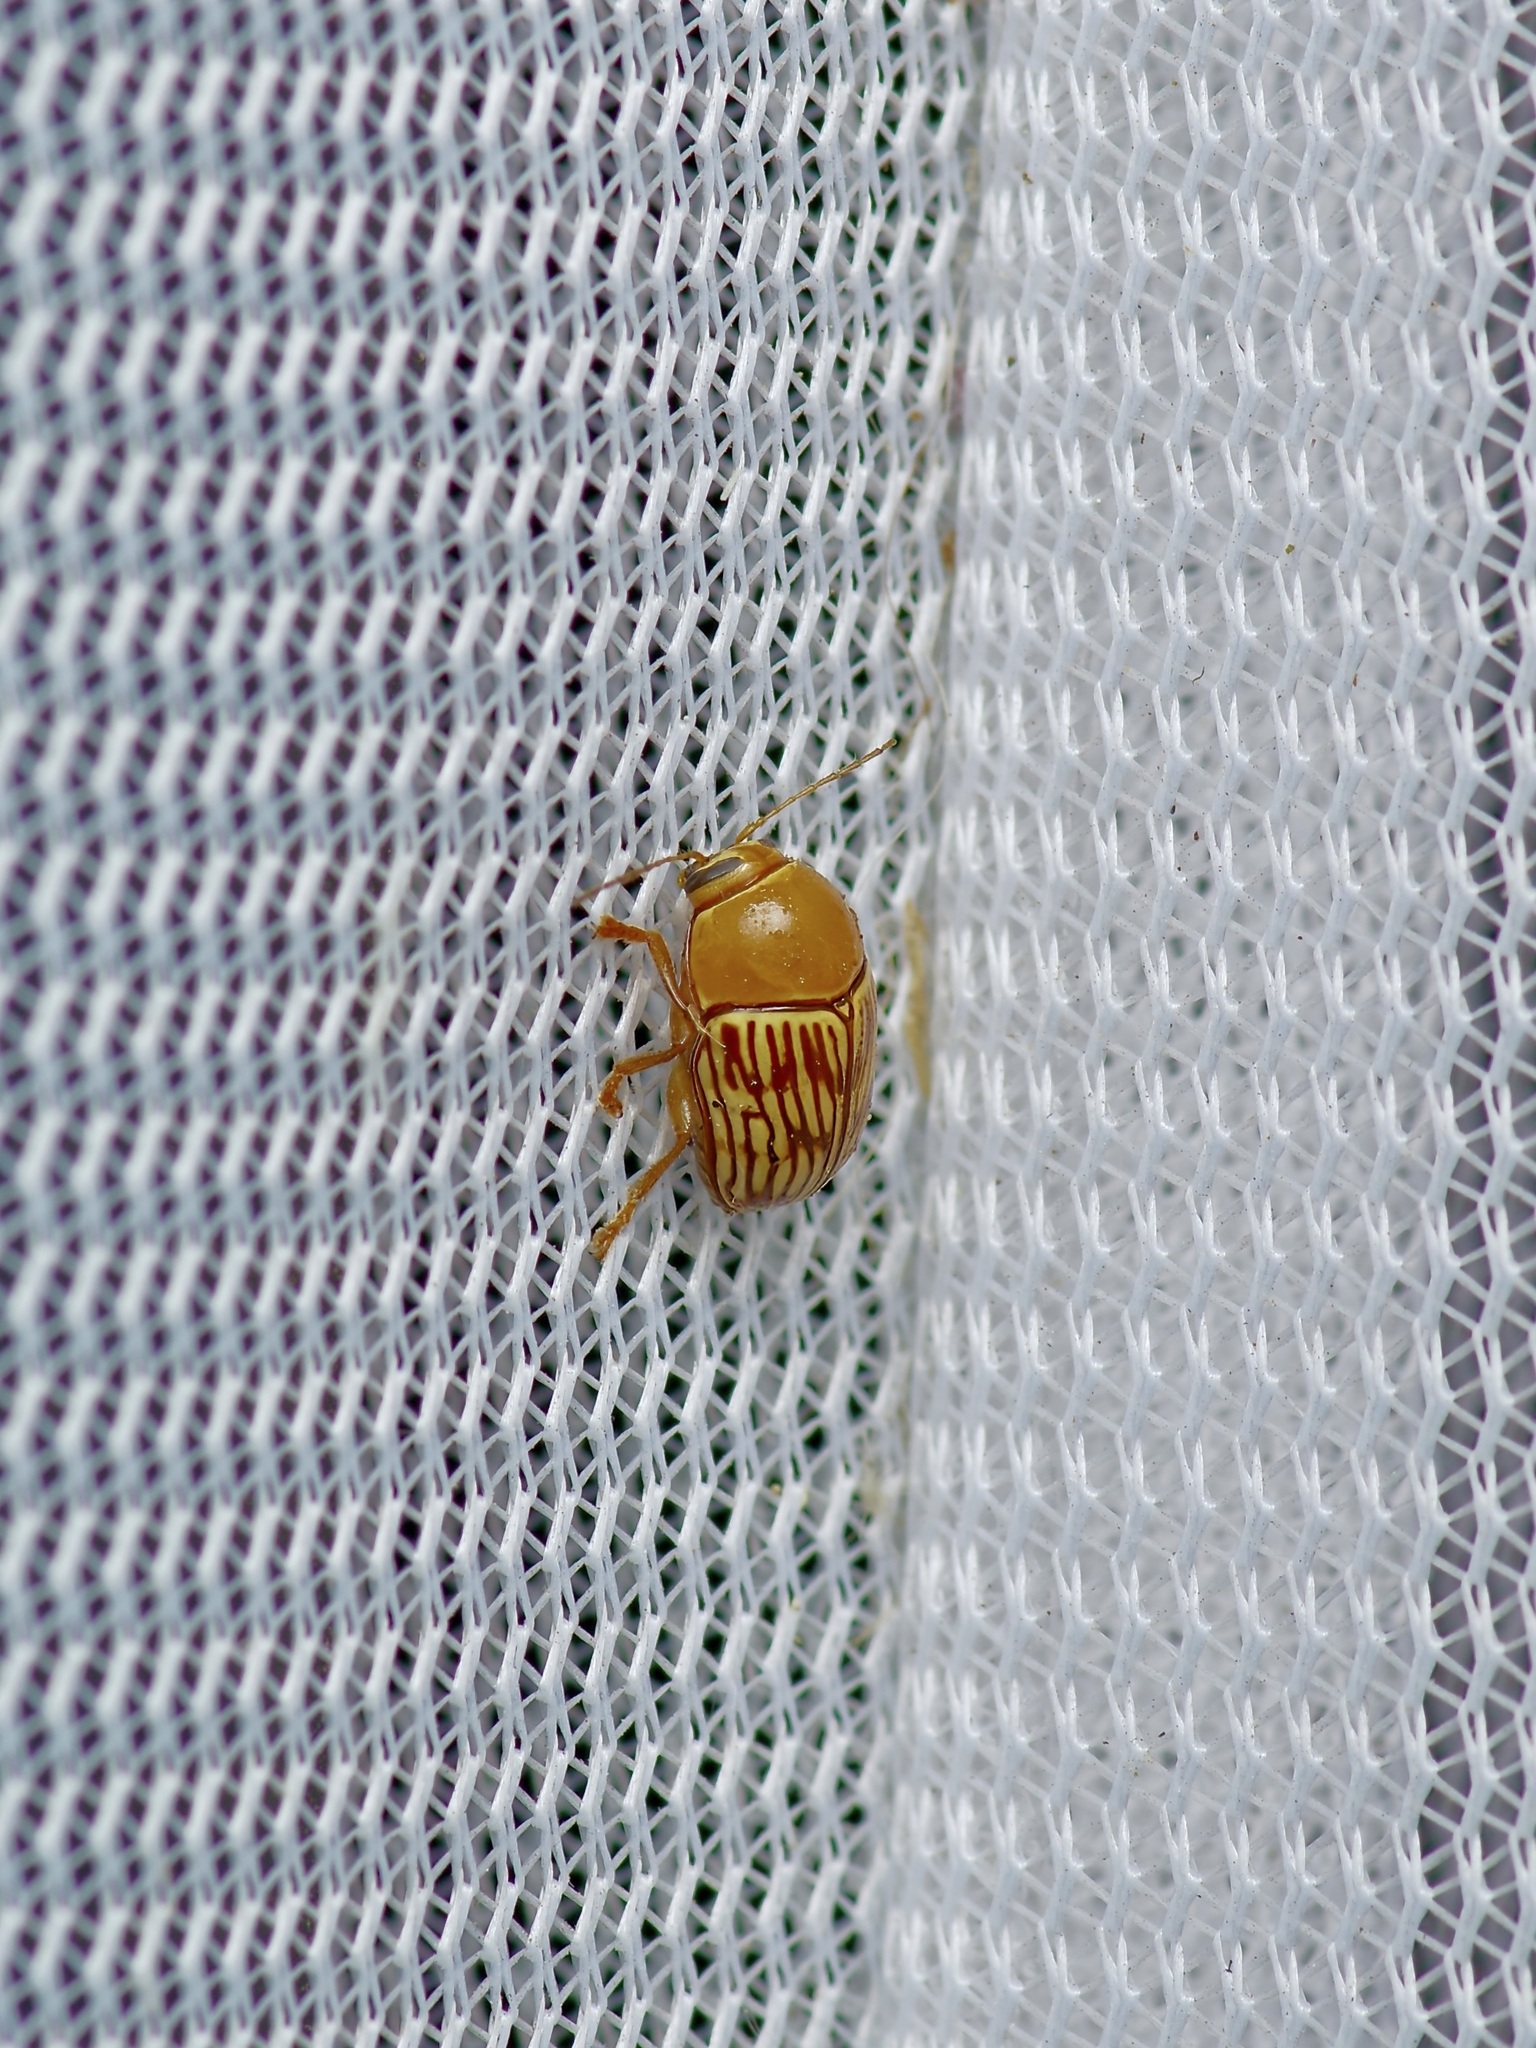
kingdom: Animalia
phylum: Arthropoda
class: Insecta
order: Coleoptera
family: Chrysomelidae
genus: Cryptocephalus
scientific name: Cryptocephalus fulguratus
